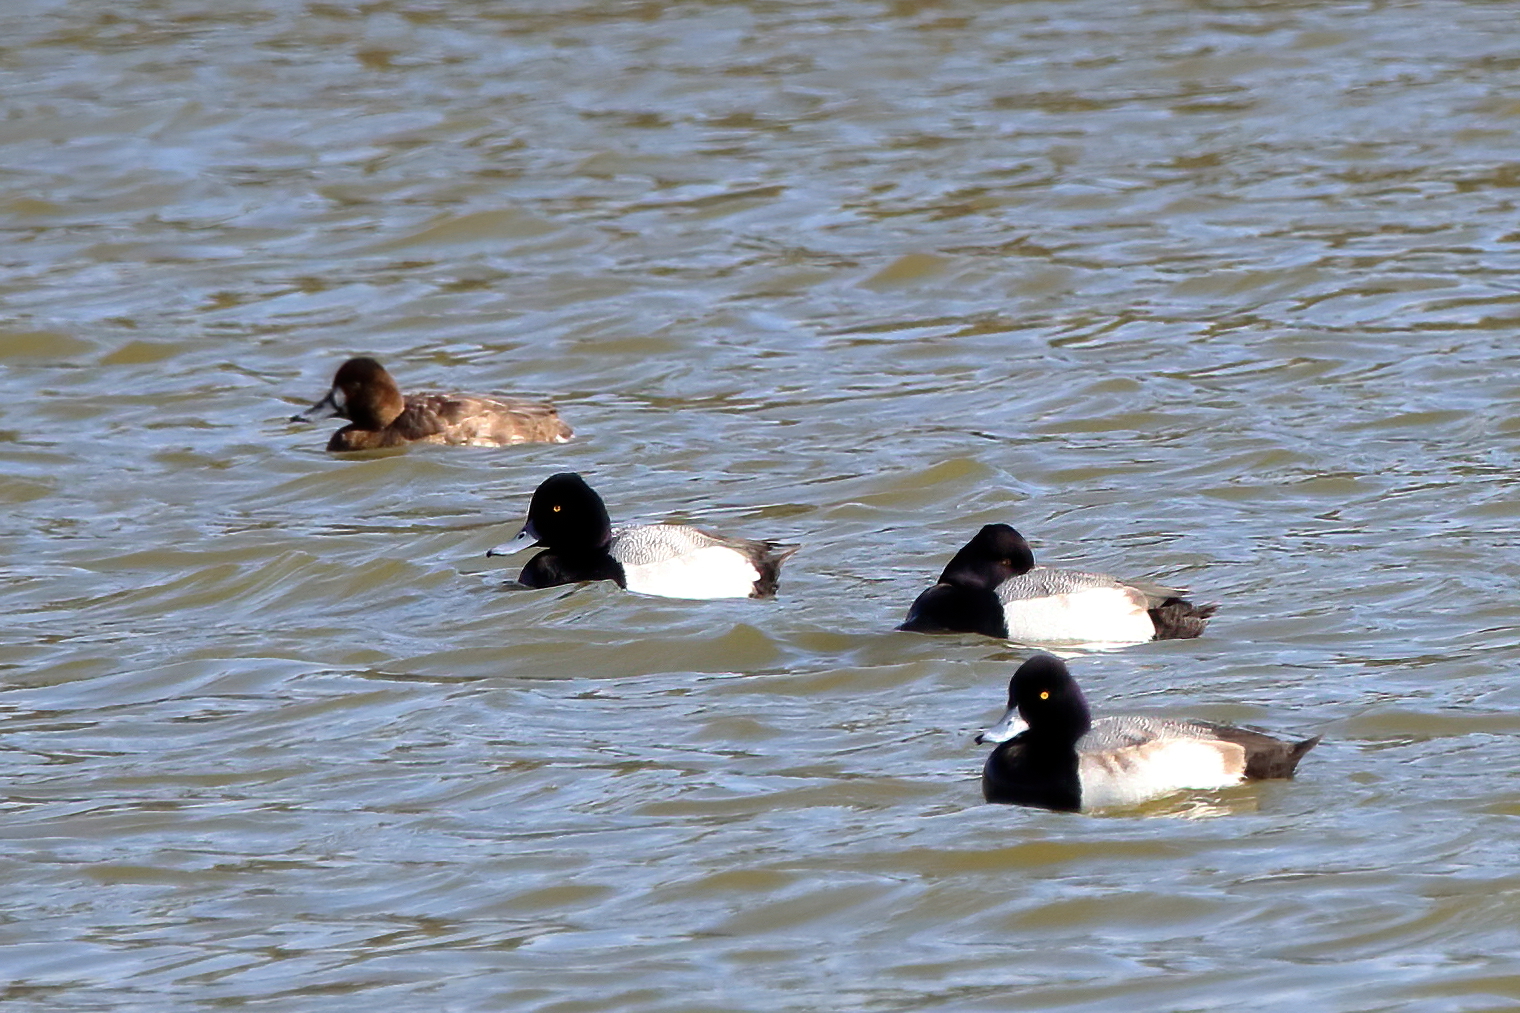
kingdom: Animalia
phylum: Chordata
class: Aves
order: Anseriformes
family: Anatidae
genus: Aythya
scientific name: Aythya affinis
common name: Lesser scaup
